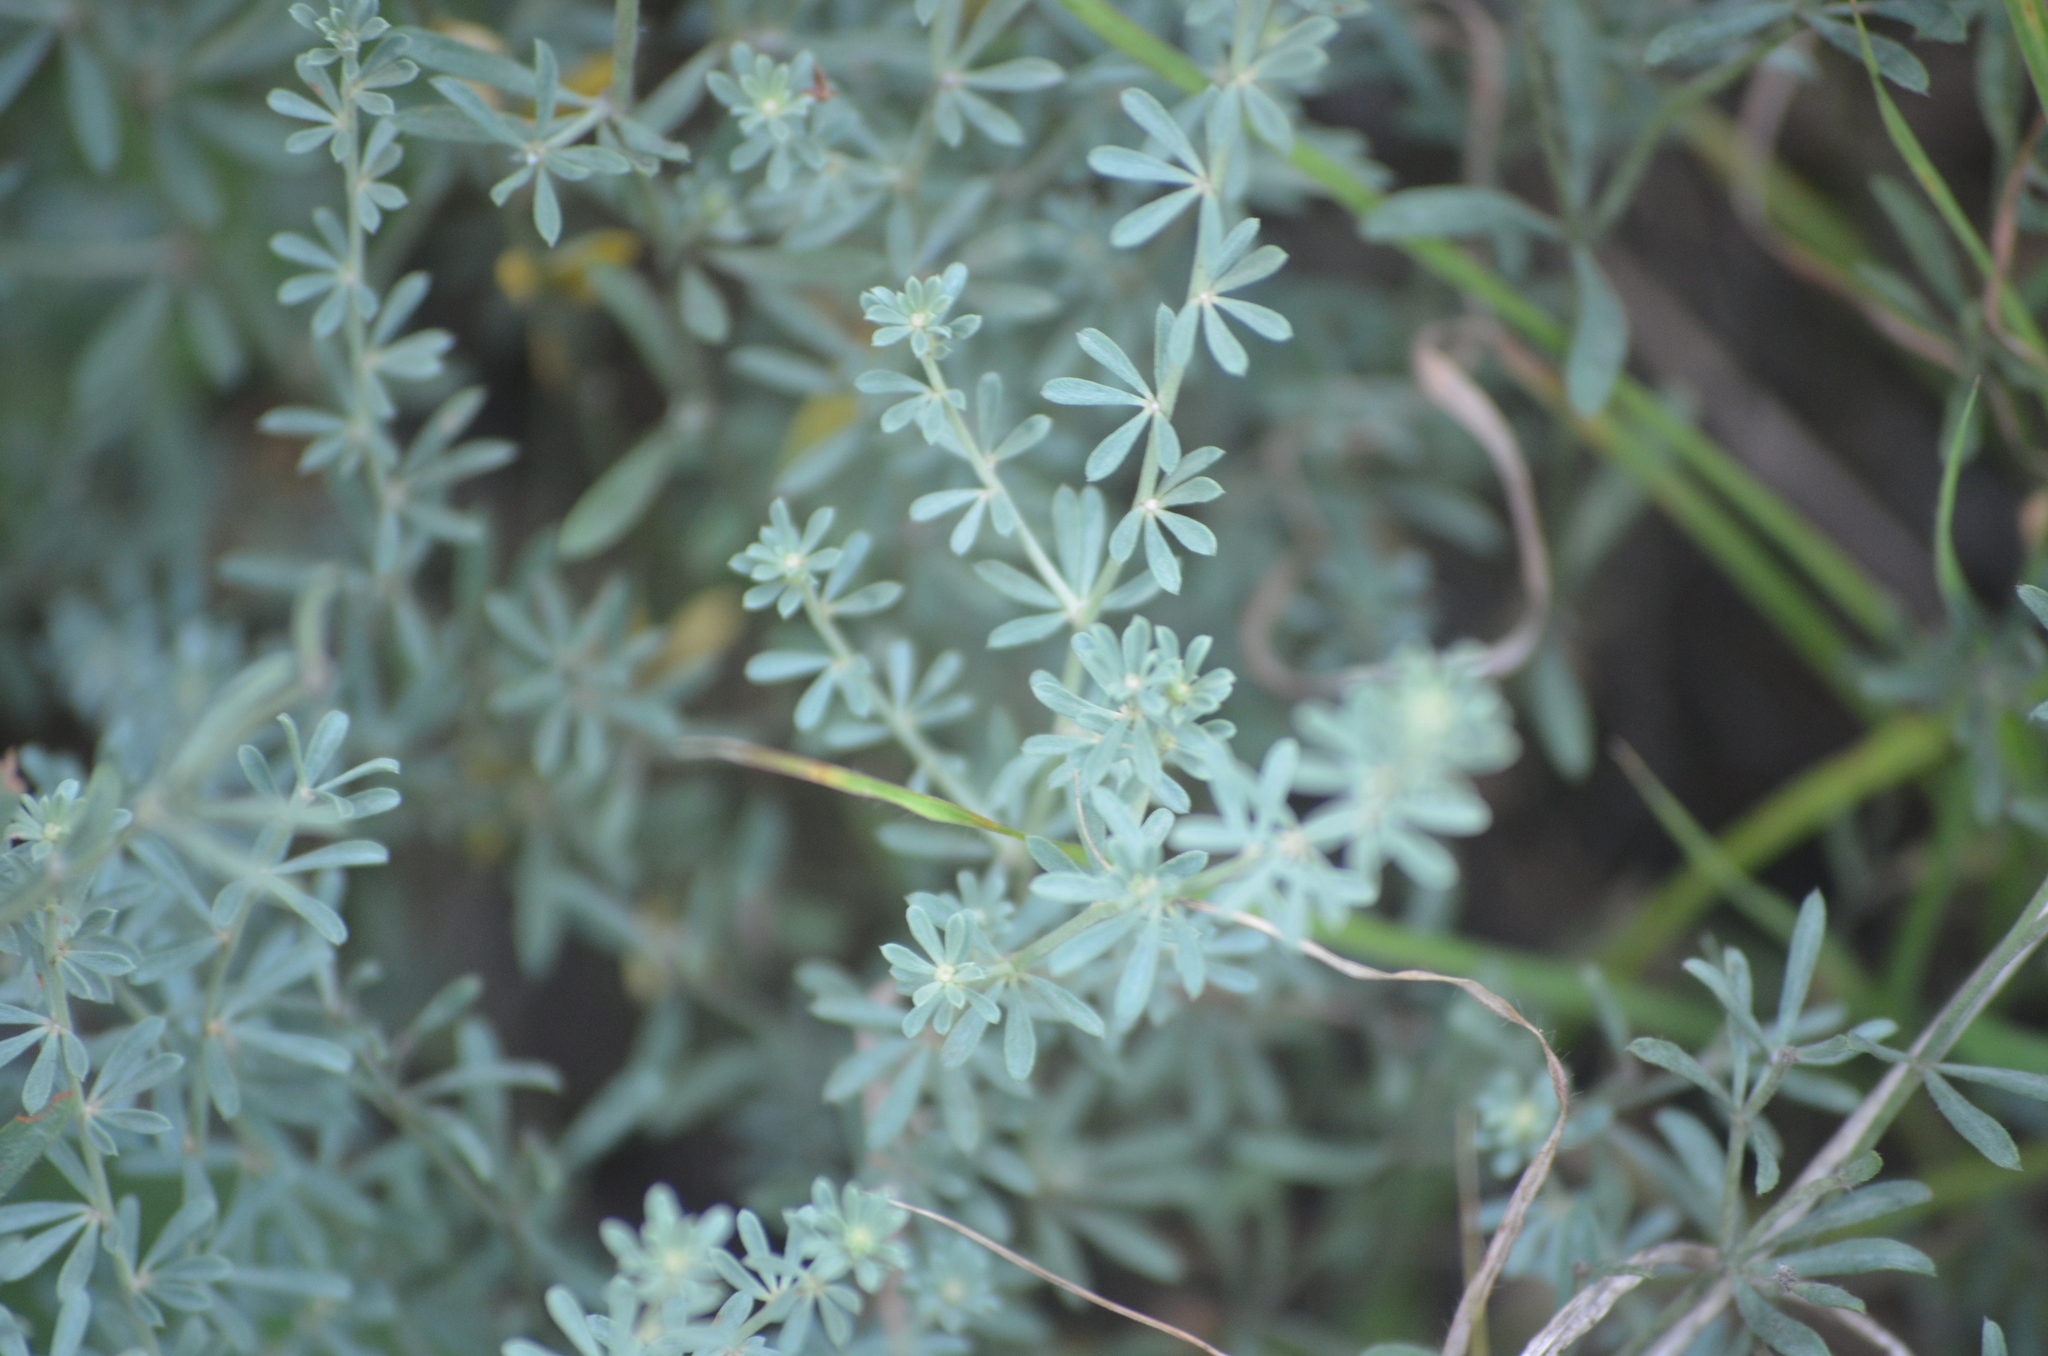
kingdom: Plantae
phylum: Tracheophyta
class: Magnoliopsida
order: Fabales
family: Fabaceae
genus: Lotus
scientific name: Lotus dorycnium
